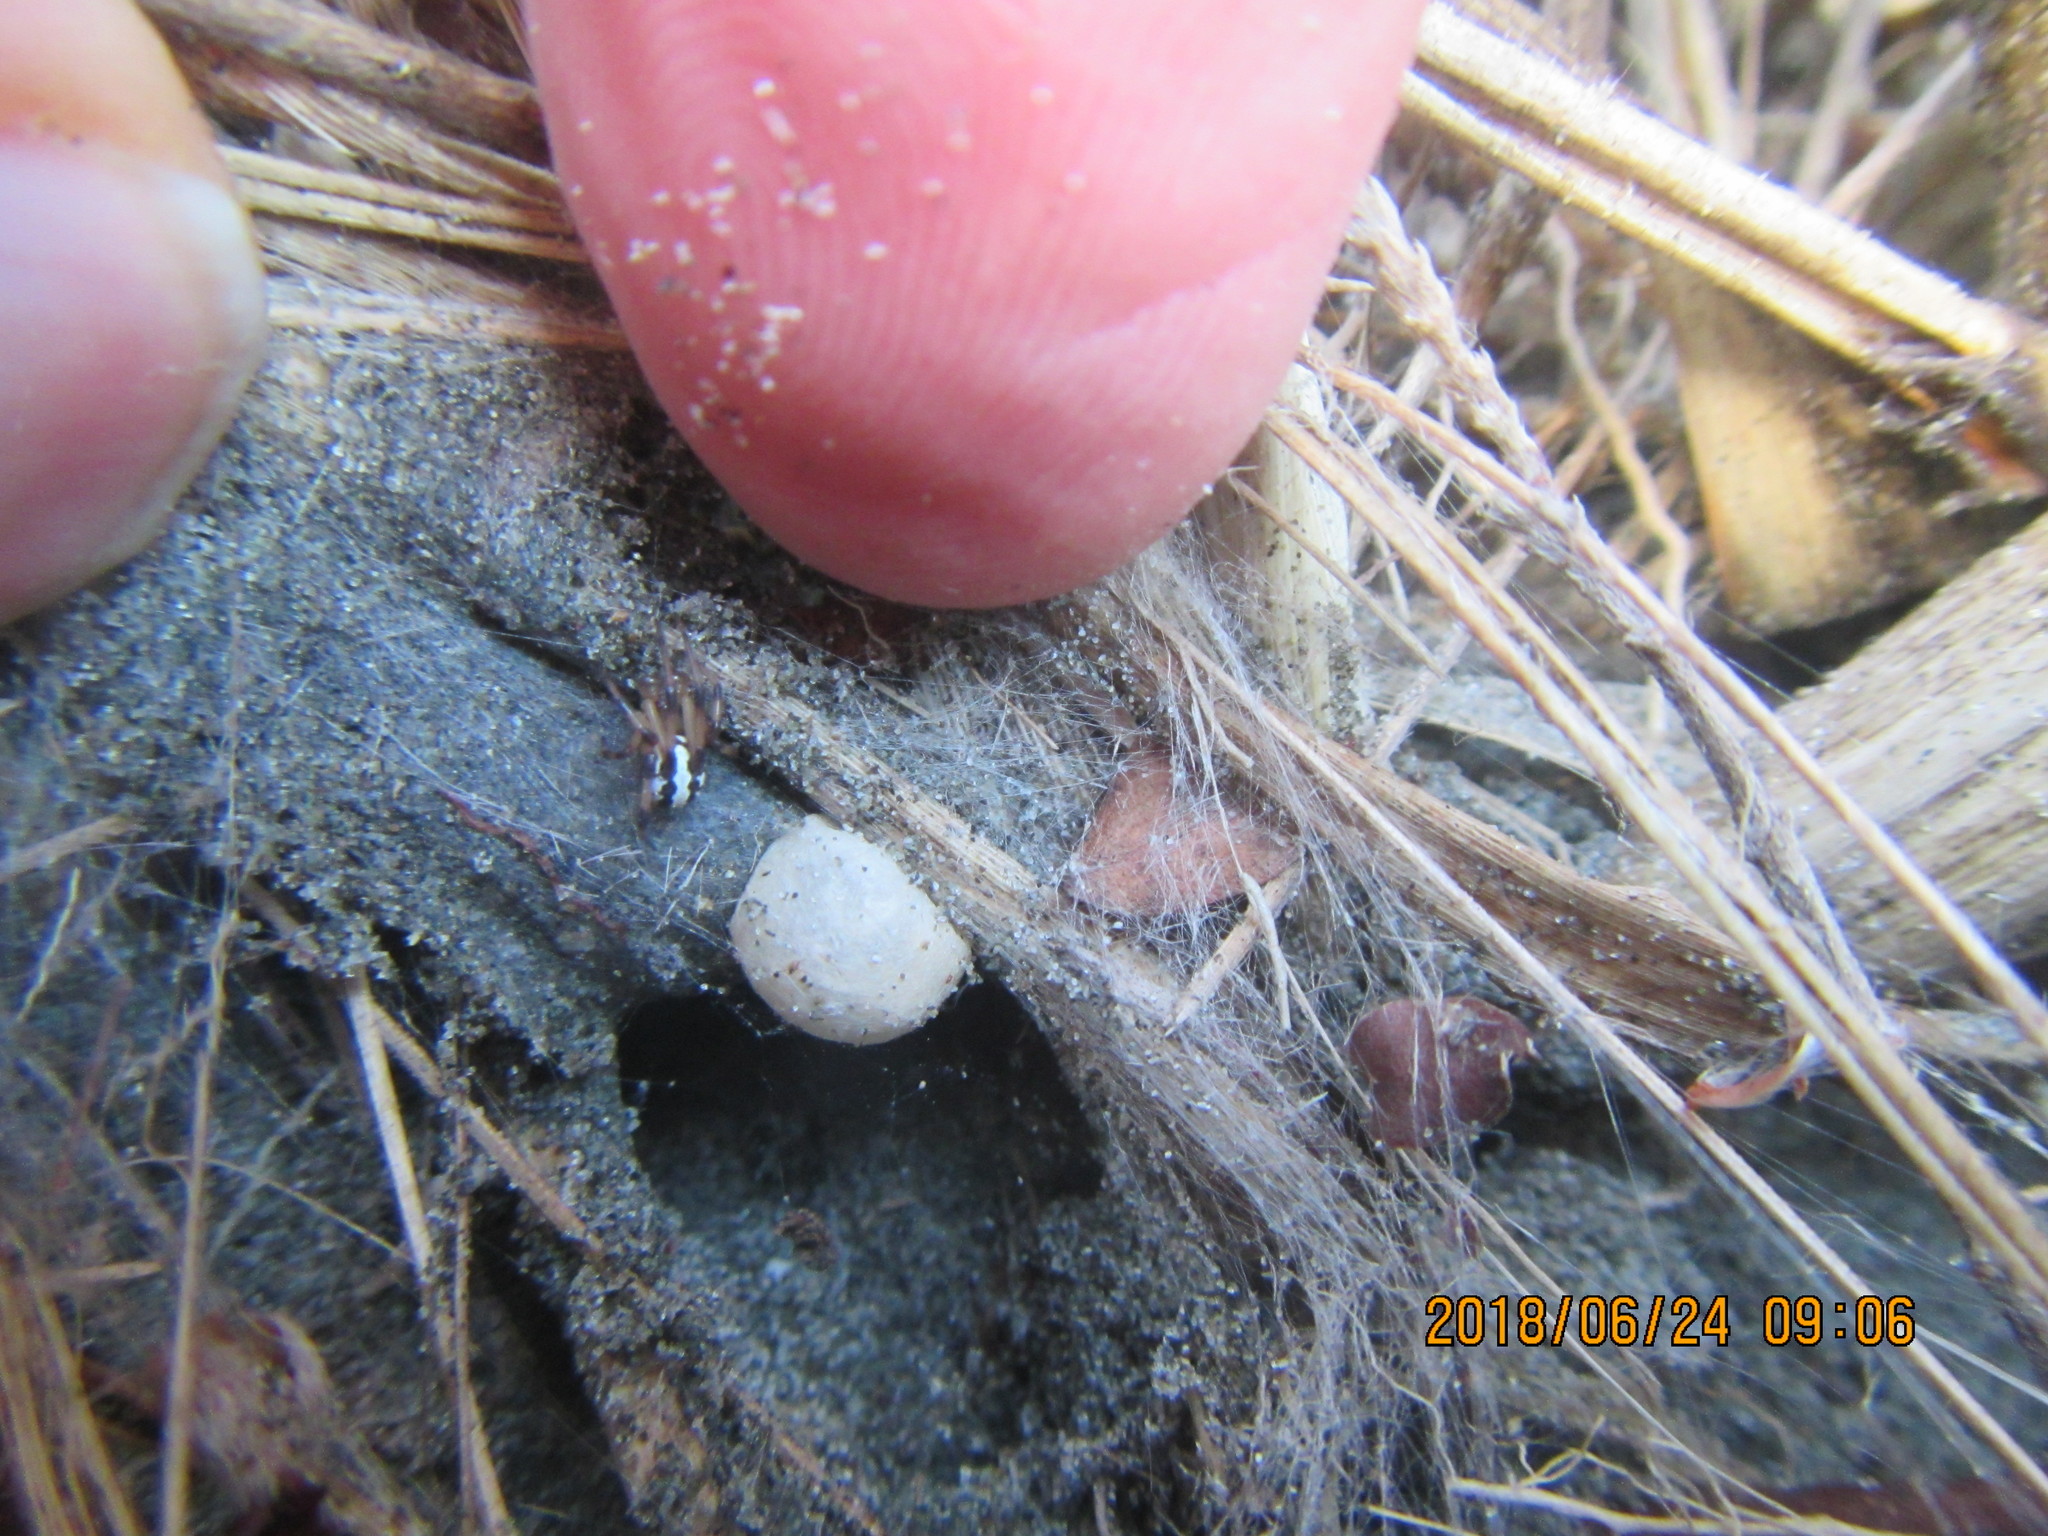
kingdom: Animalia
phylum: Arthropoda
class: Arachnida
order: Araneae
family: Theridiidae
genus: Latrodectus
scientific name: Latrodectus katipo
